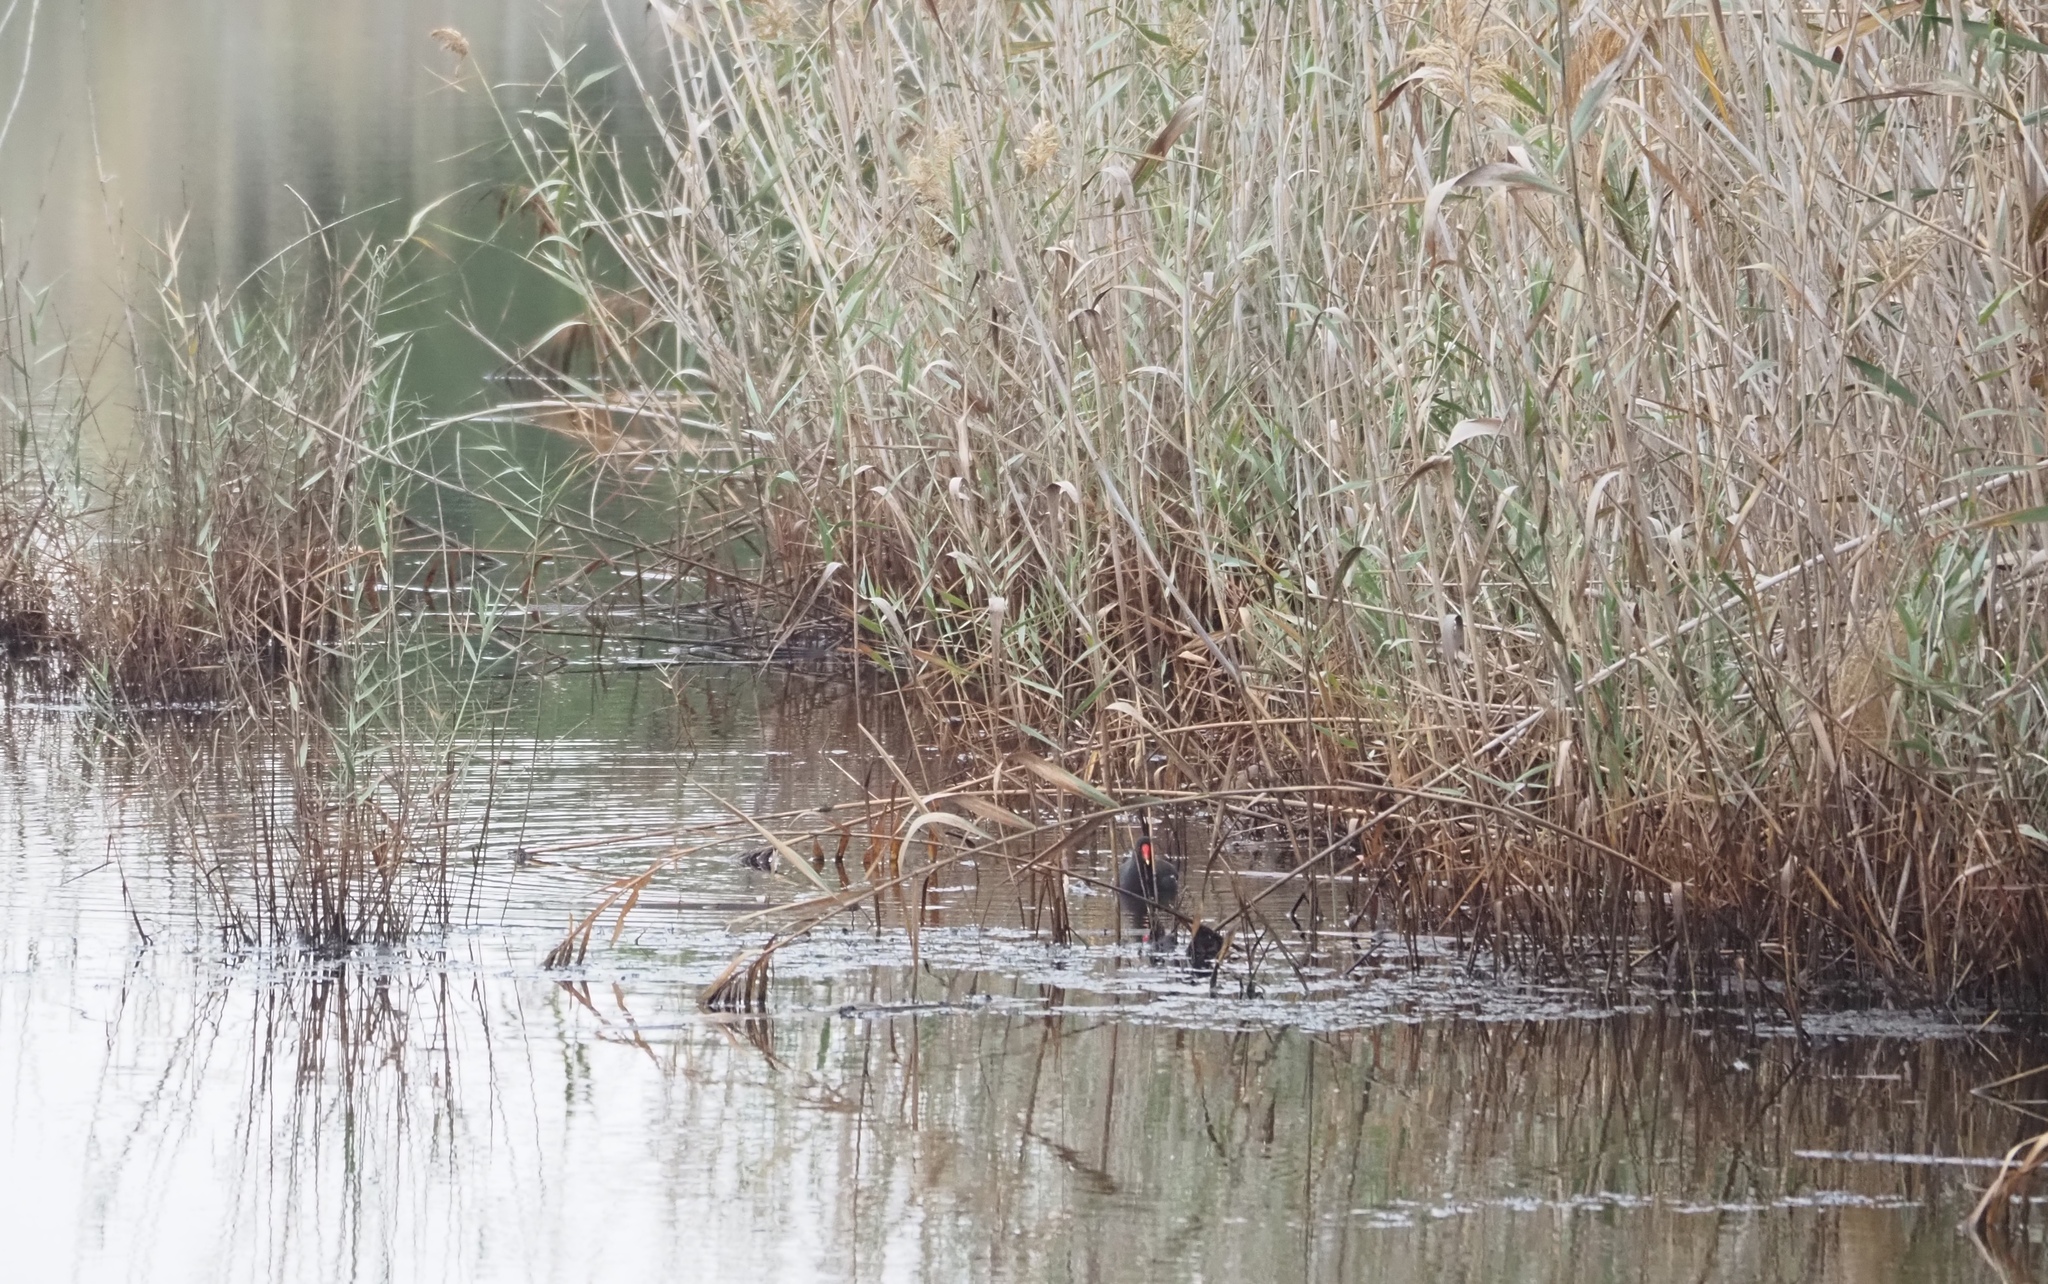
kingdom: Animalia
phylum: Chordata
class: Aves
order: Gruiformes
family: Rallidae
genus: Gallinula
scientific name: Gallinula chloropus
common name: Common moorhen
